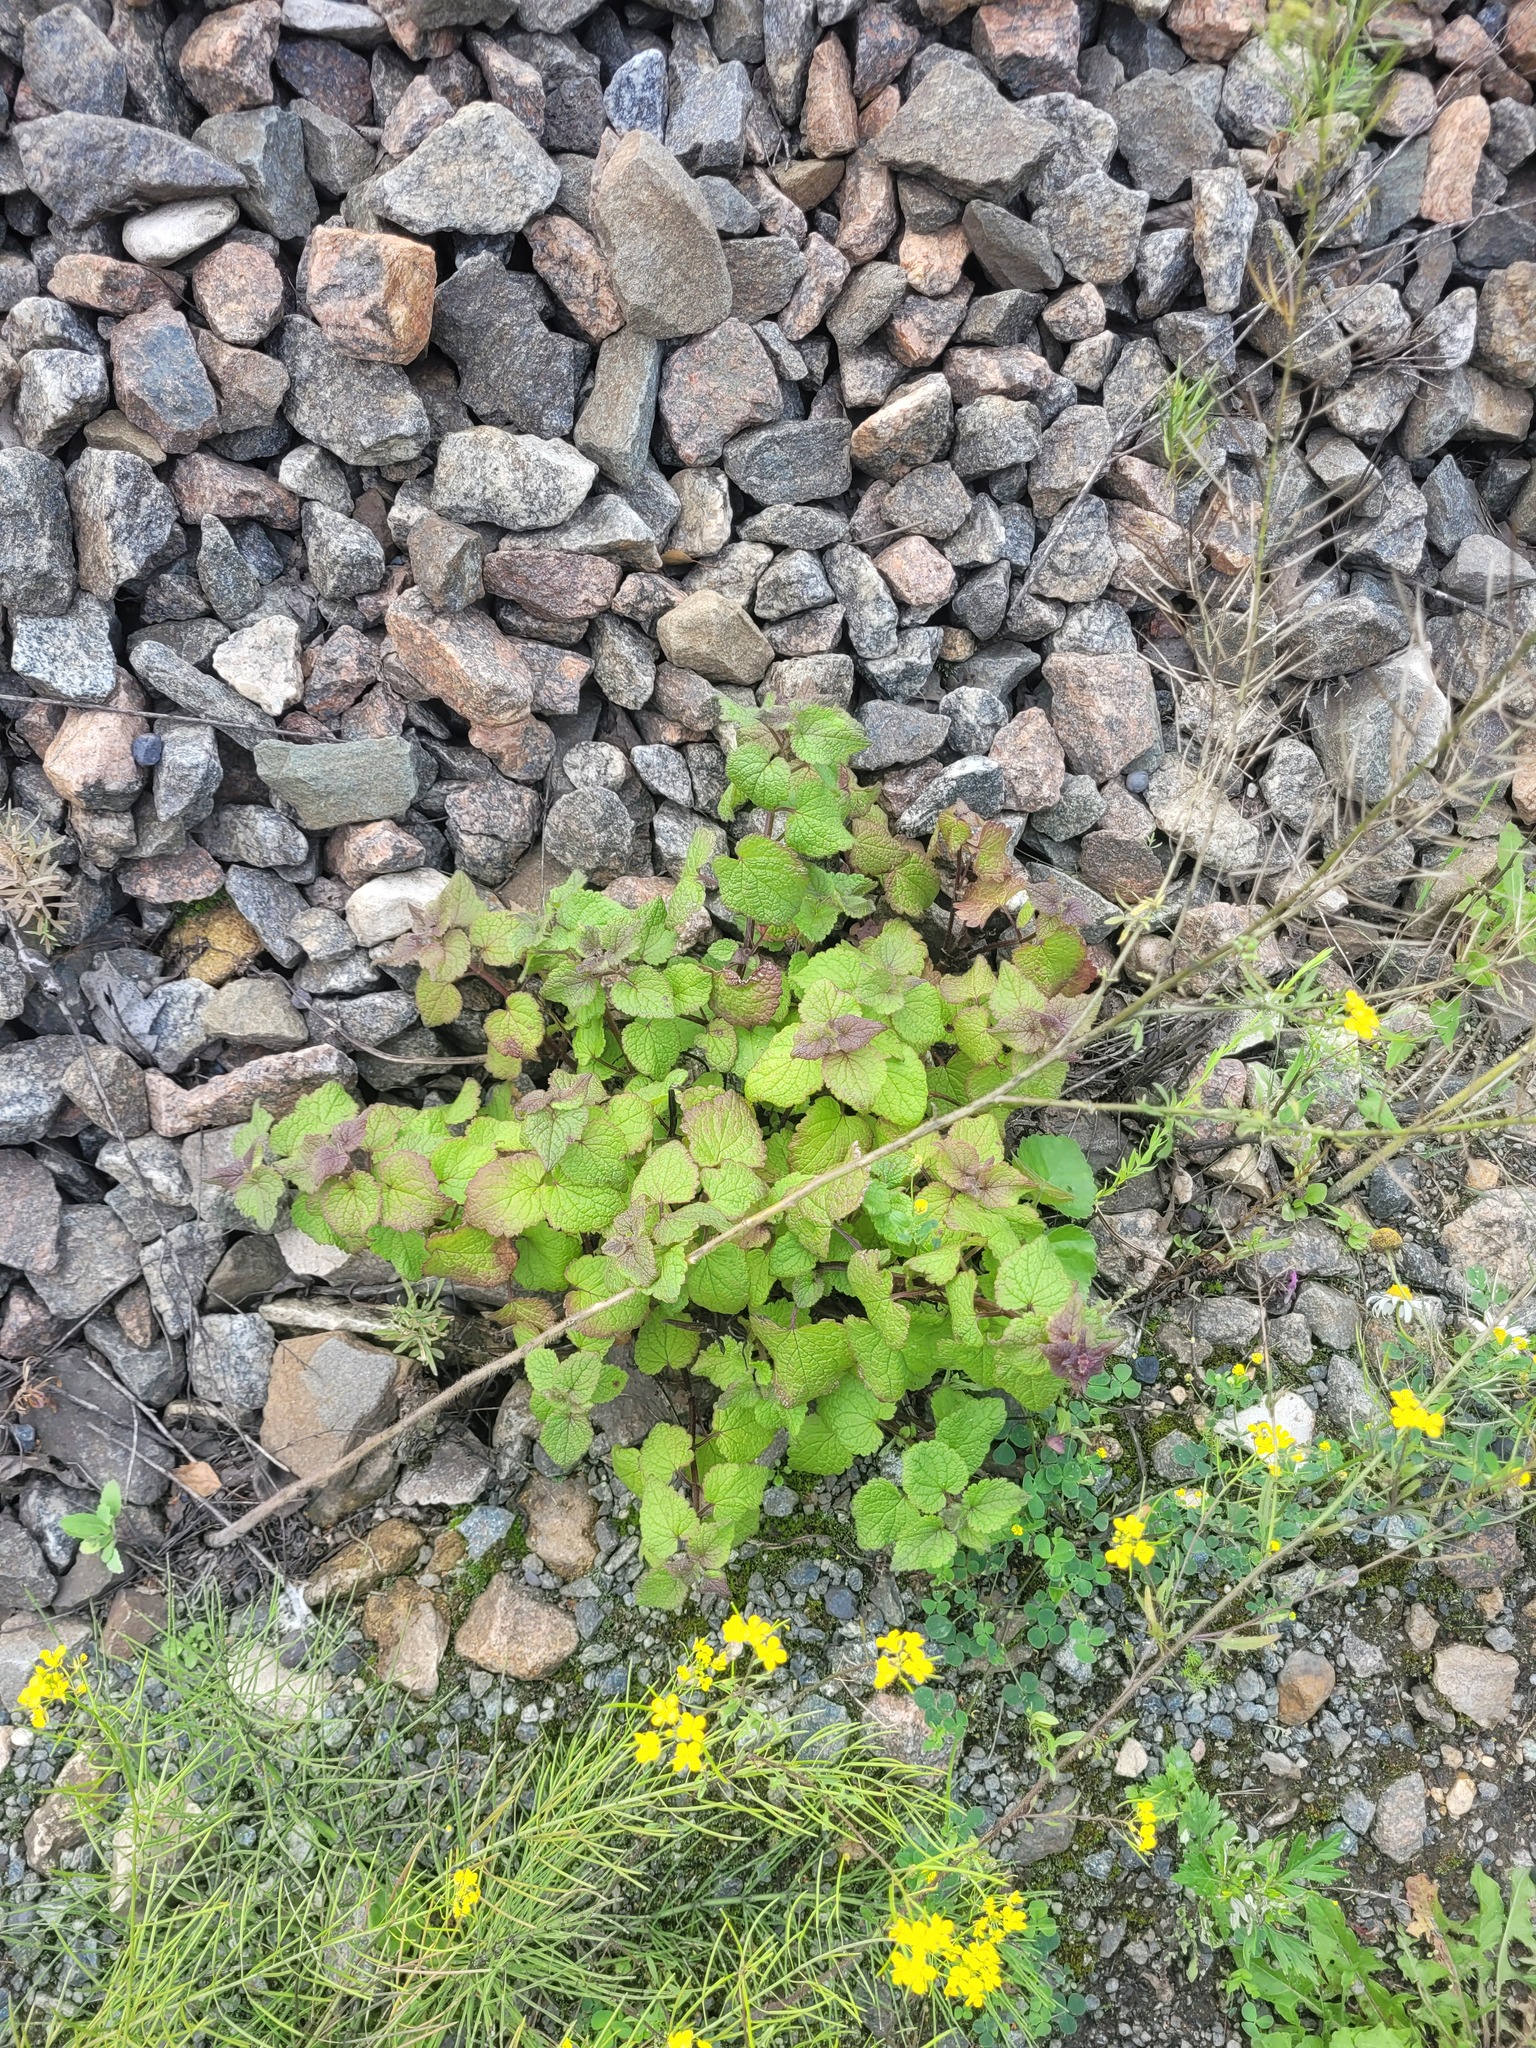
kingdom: Plantae
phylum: Tracheophyta
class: Magnoliopsida
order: Lamiales
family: Lamiaceae
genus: Lamium
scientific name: Lamium maculatum
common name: Spotted dead-nettle
